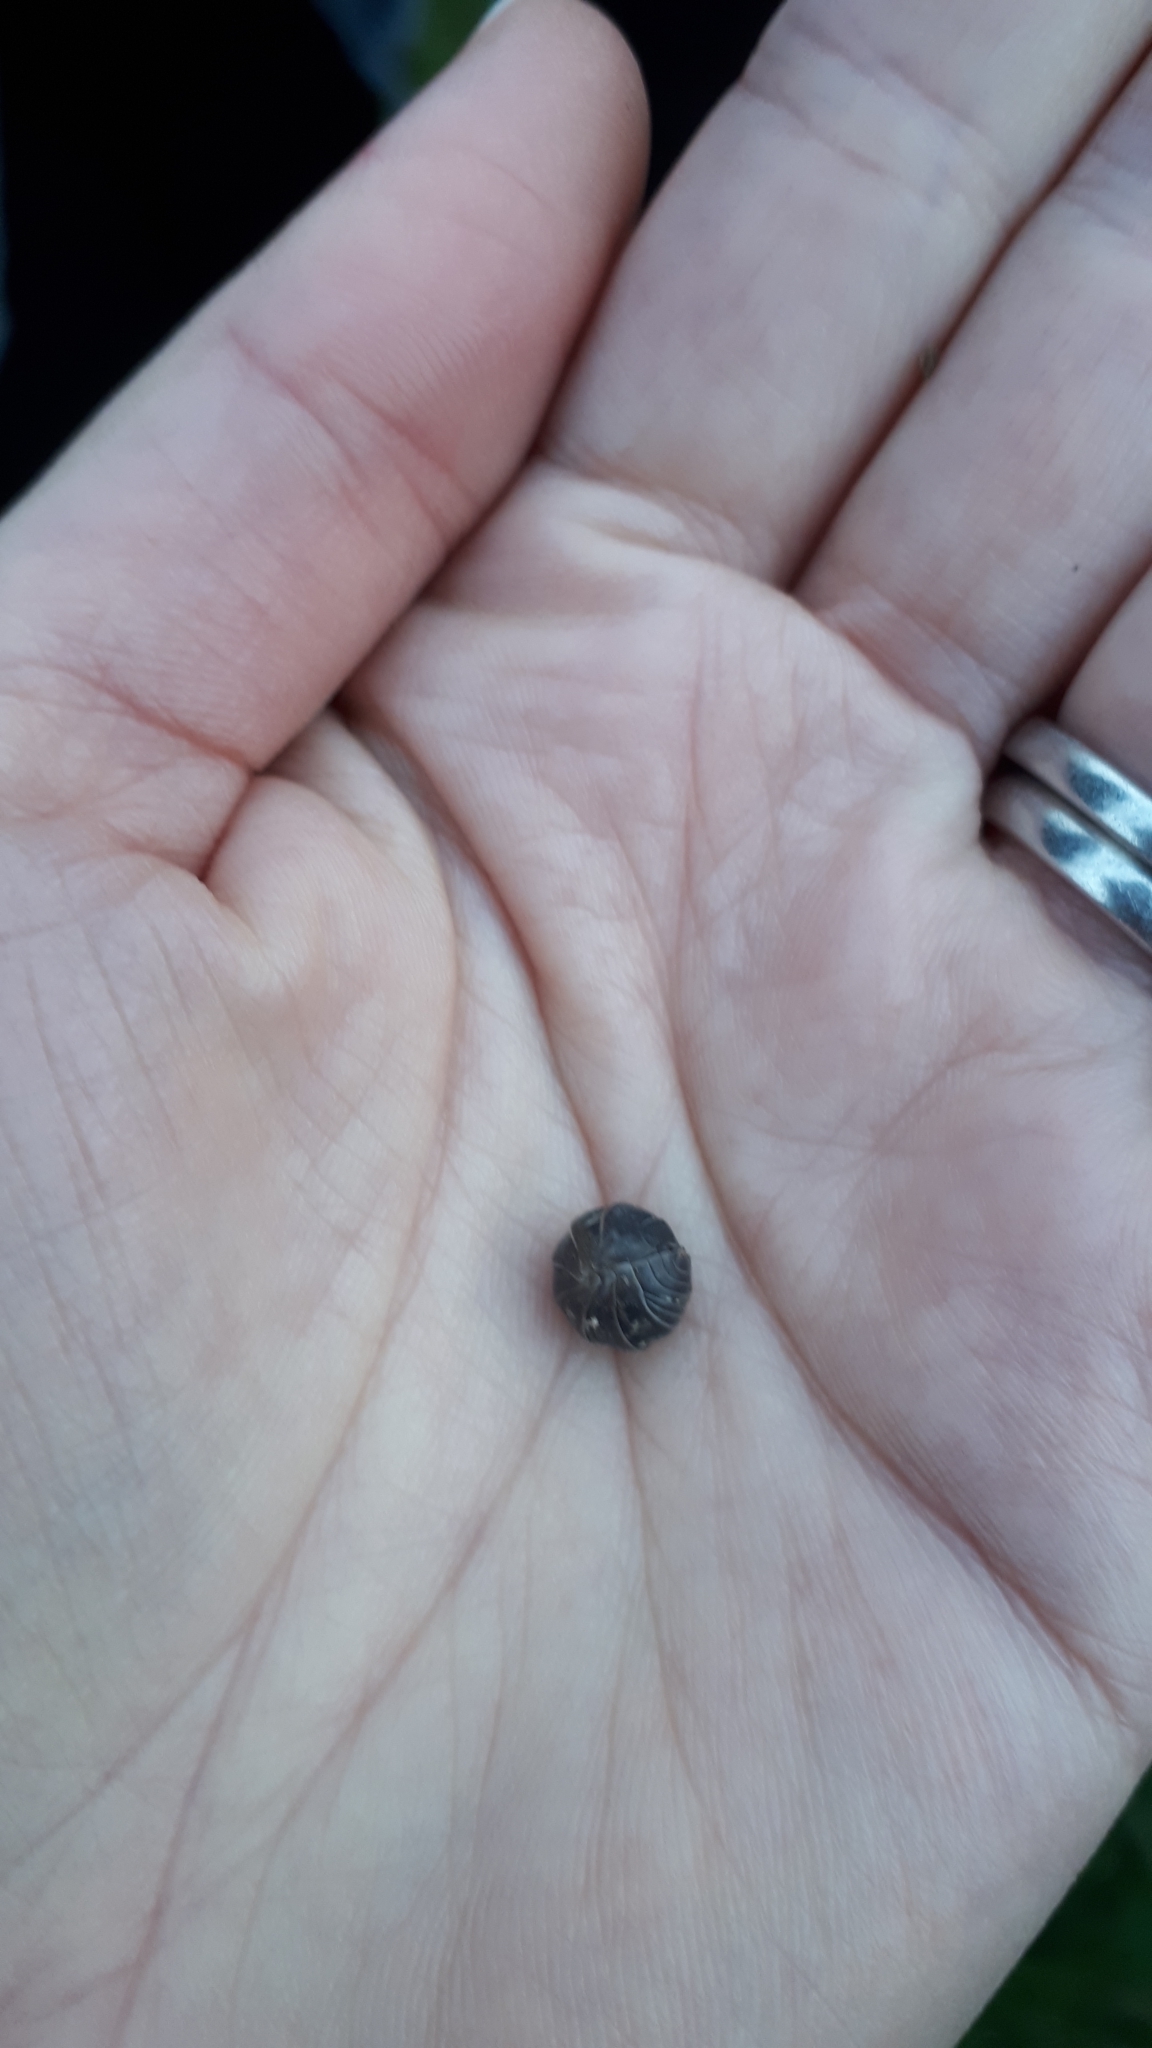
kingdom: Animalia
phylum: Arthropoda
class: Malacostraca
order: Isopoda
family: Armadillidiidae
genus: Armadillidium
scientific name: Armadillidium vulgare
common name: Common pill woodlouse
